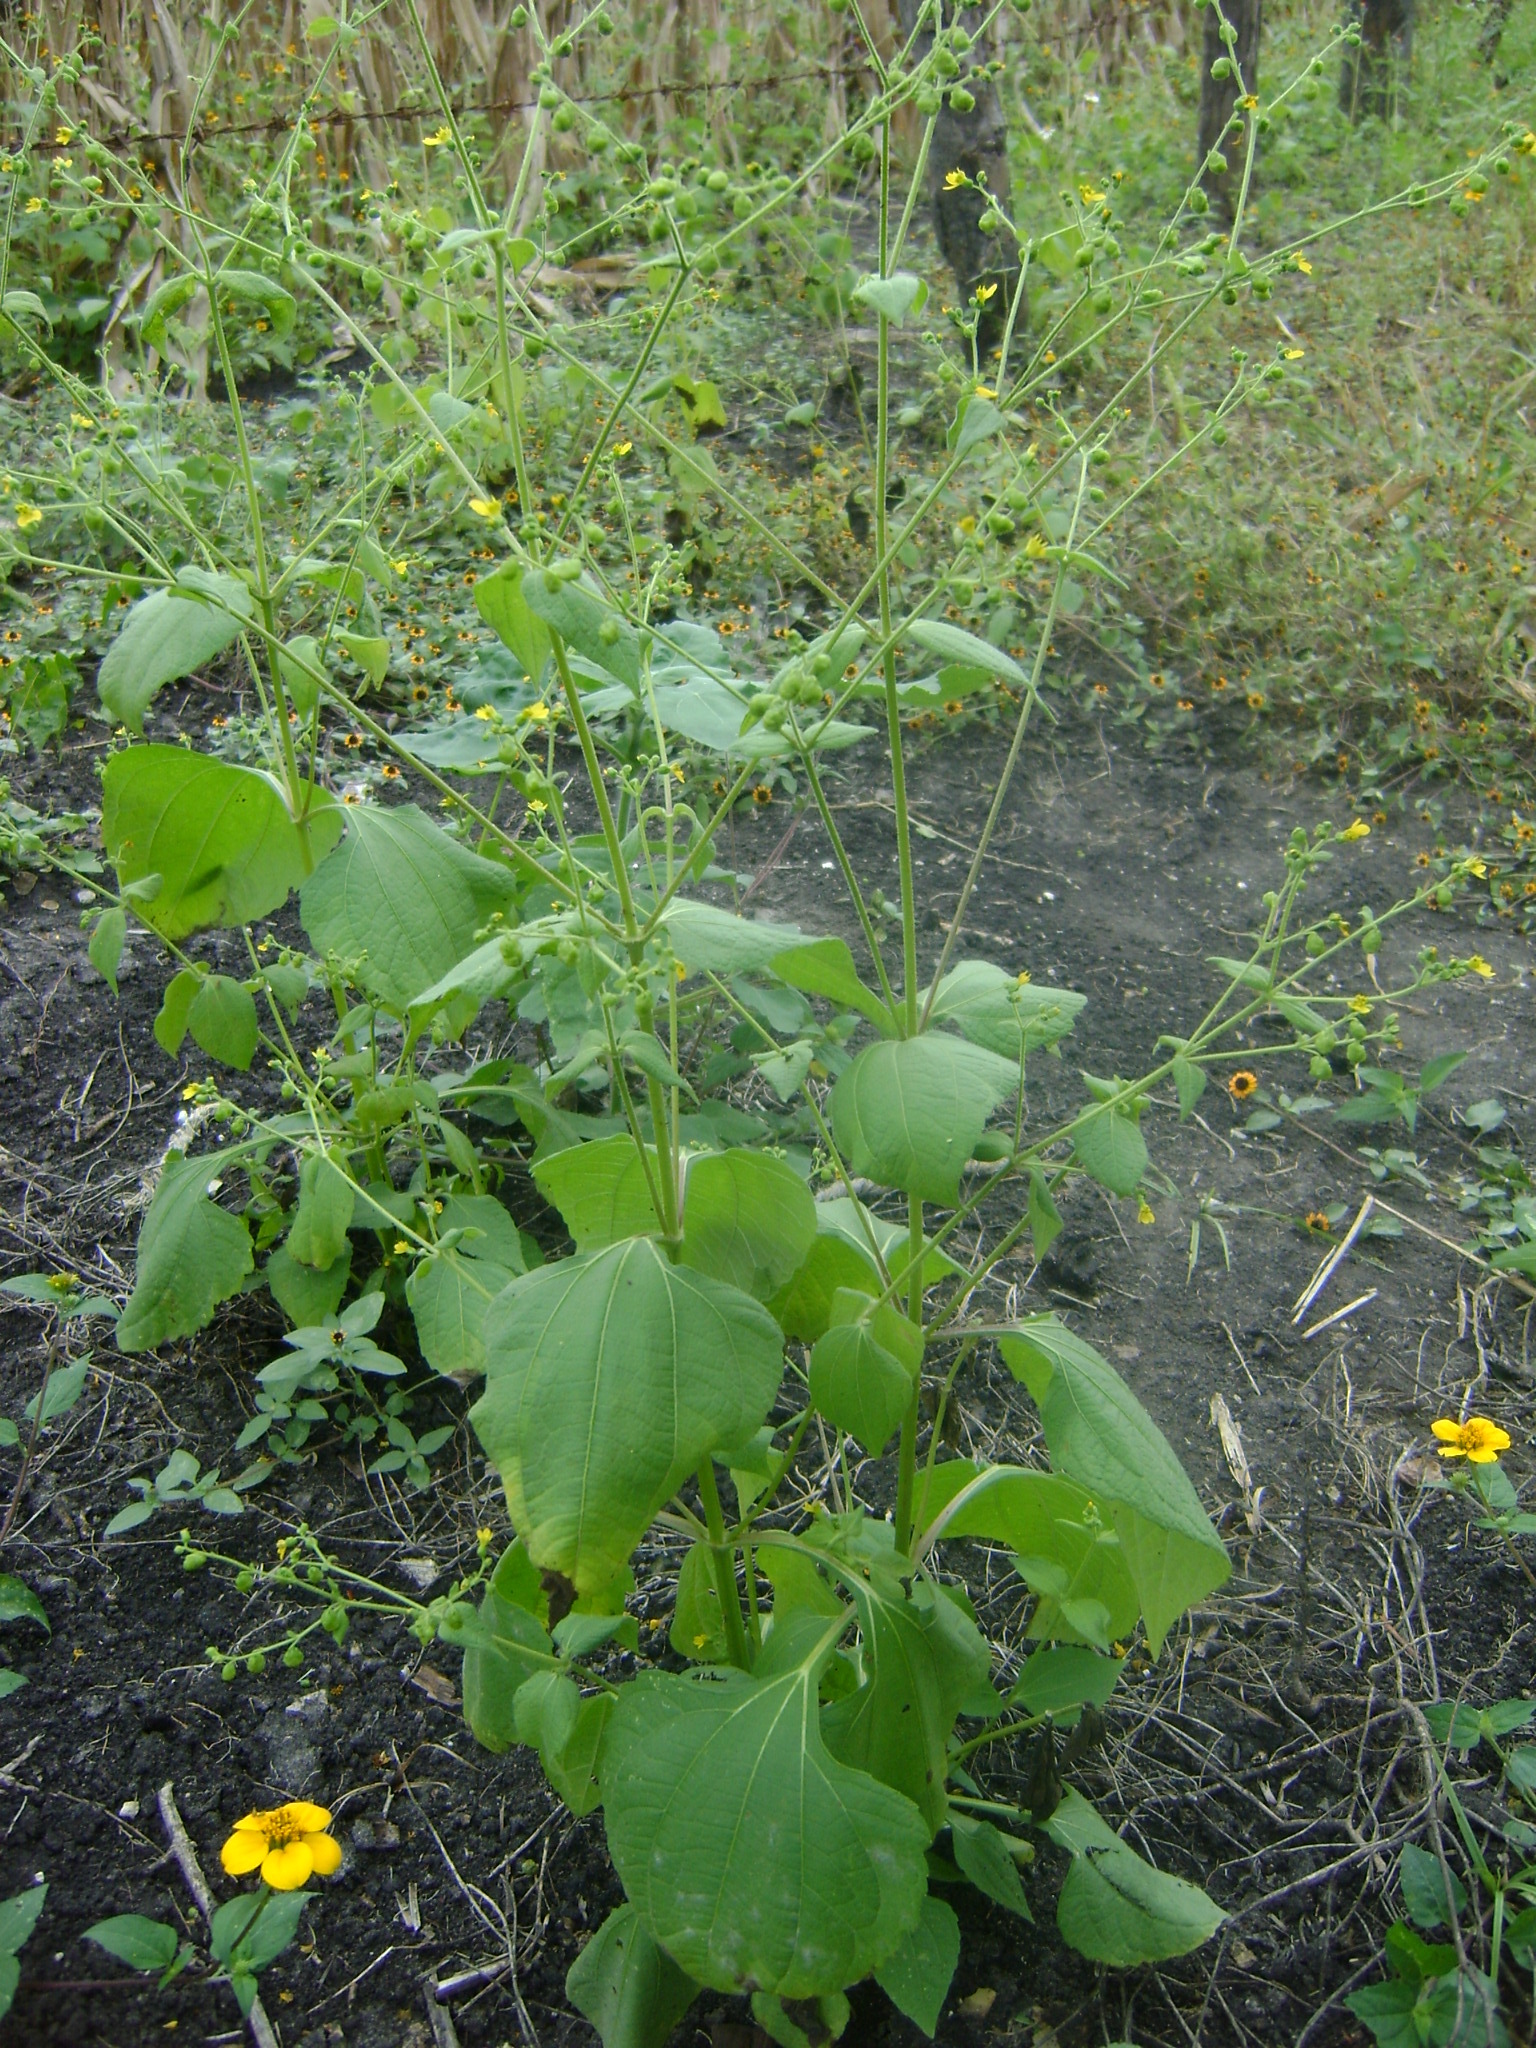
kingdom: Plantae
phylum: Tracheophyta
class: Magnoliopsida
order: Asterales
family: Asteraceae
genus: Milleria
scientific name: Milleria quinqueflora
